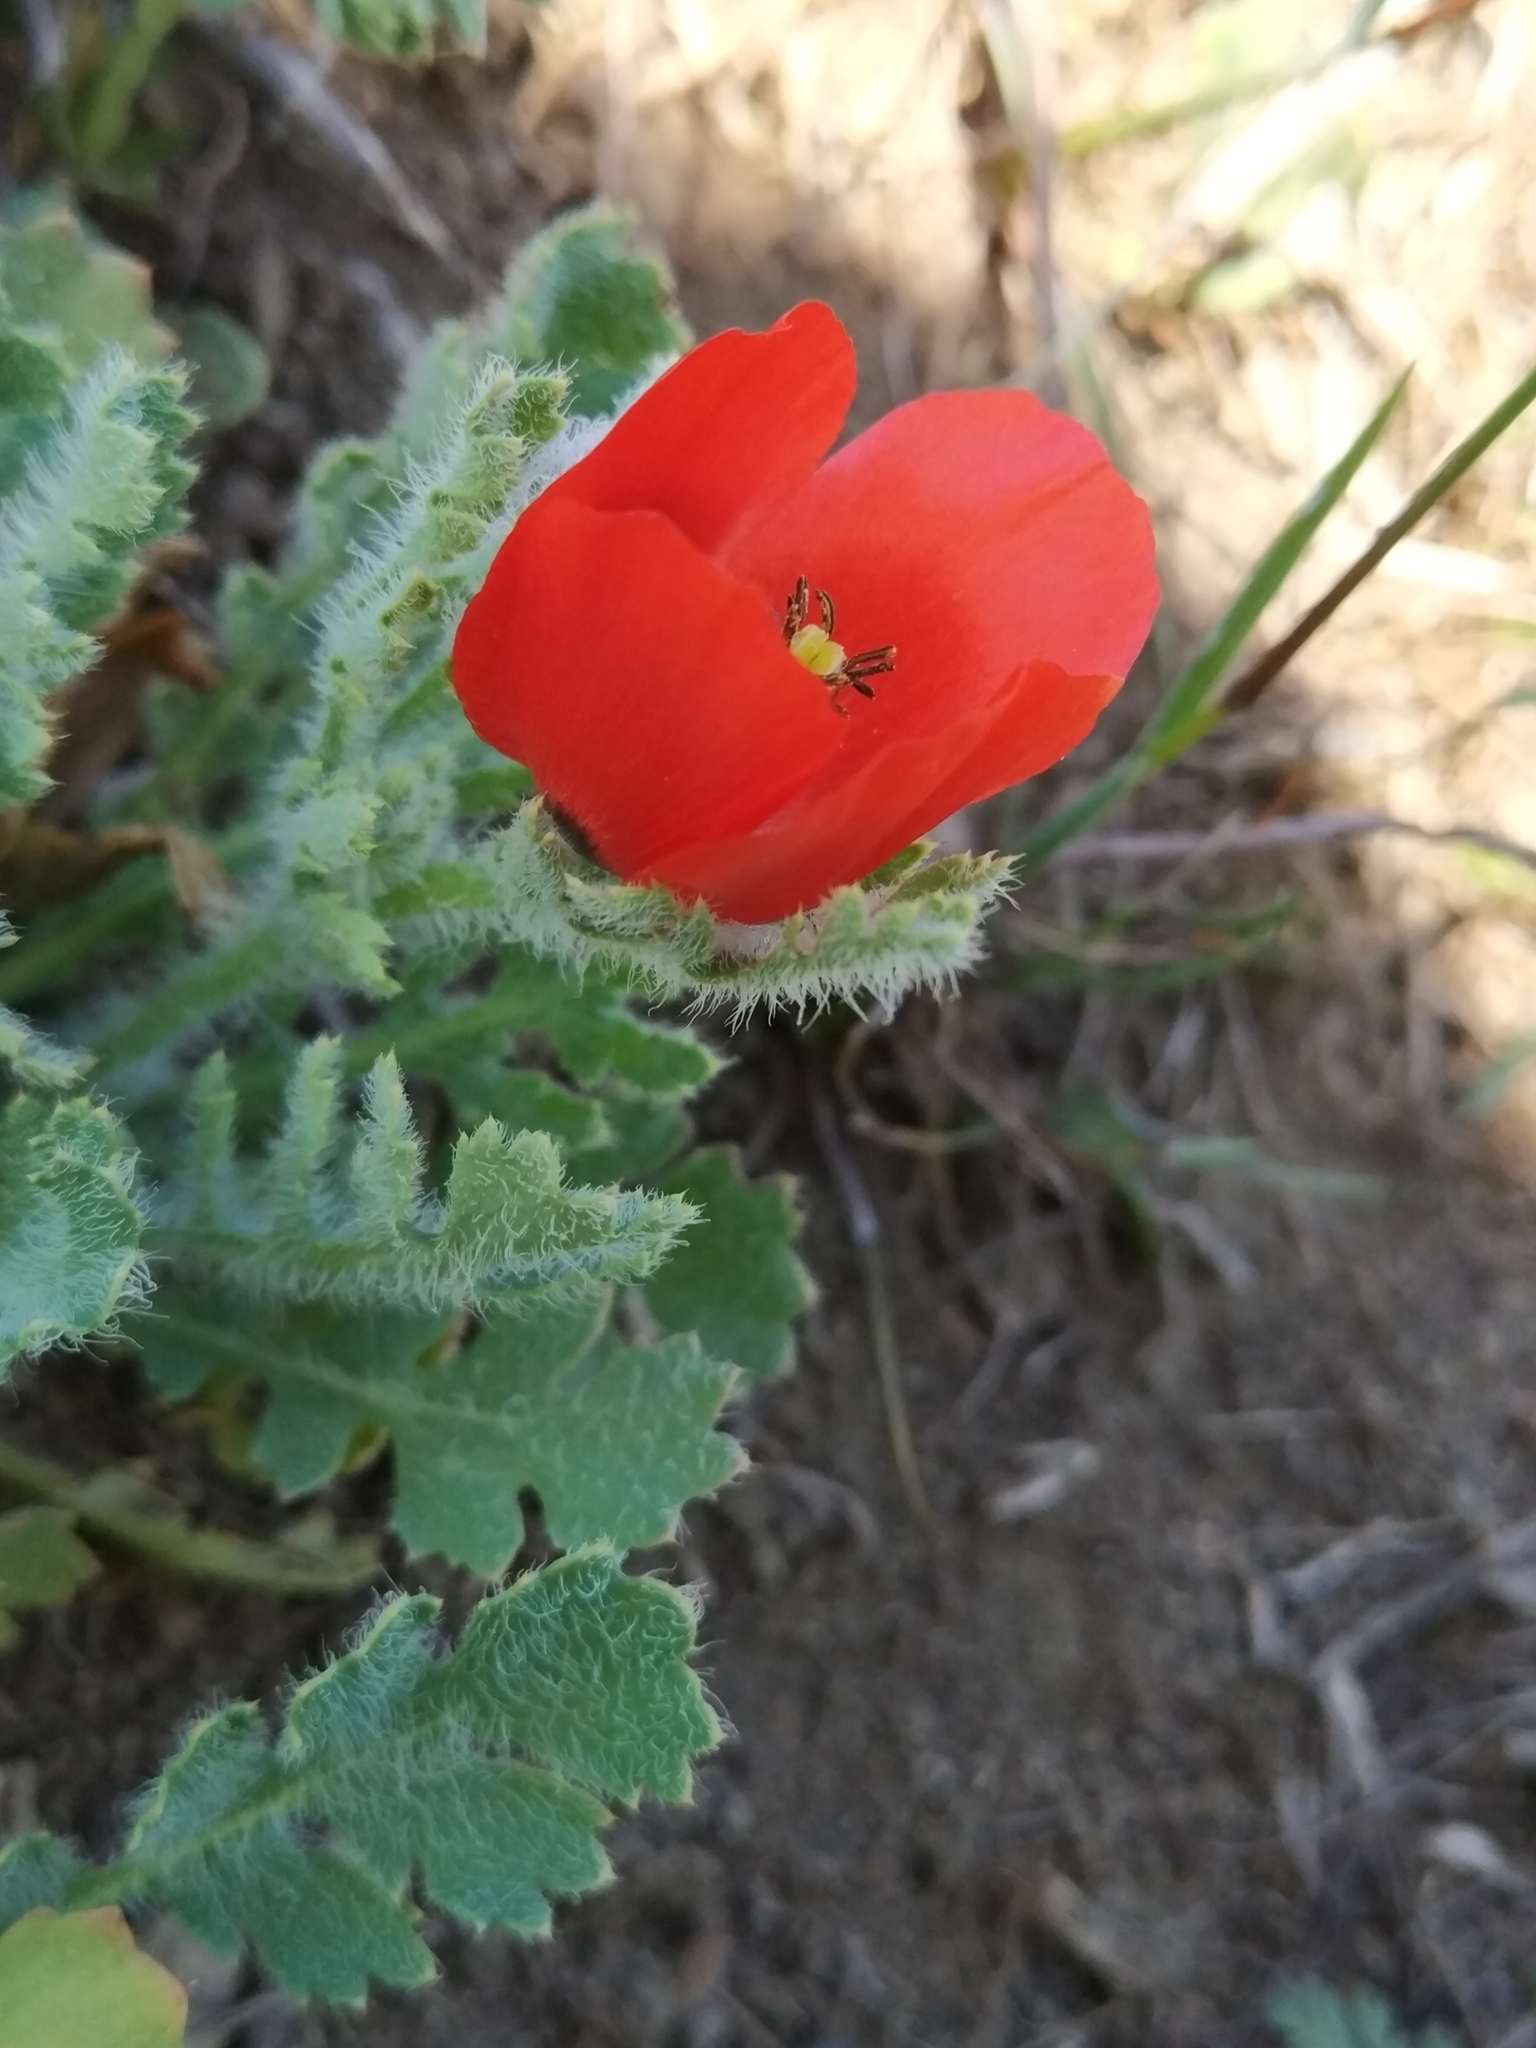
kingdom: Plantae
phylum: Tracheophyta
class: Magnoliopsida
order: Ranunculales
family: Papaveraceae
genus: Glaucium
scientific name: Glaucium corniculatum
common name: Red horned-poppy
